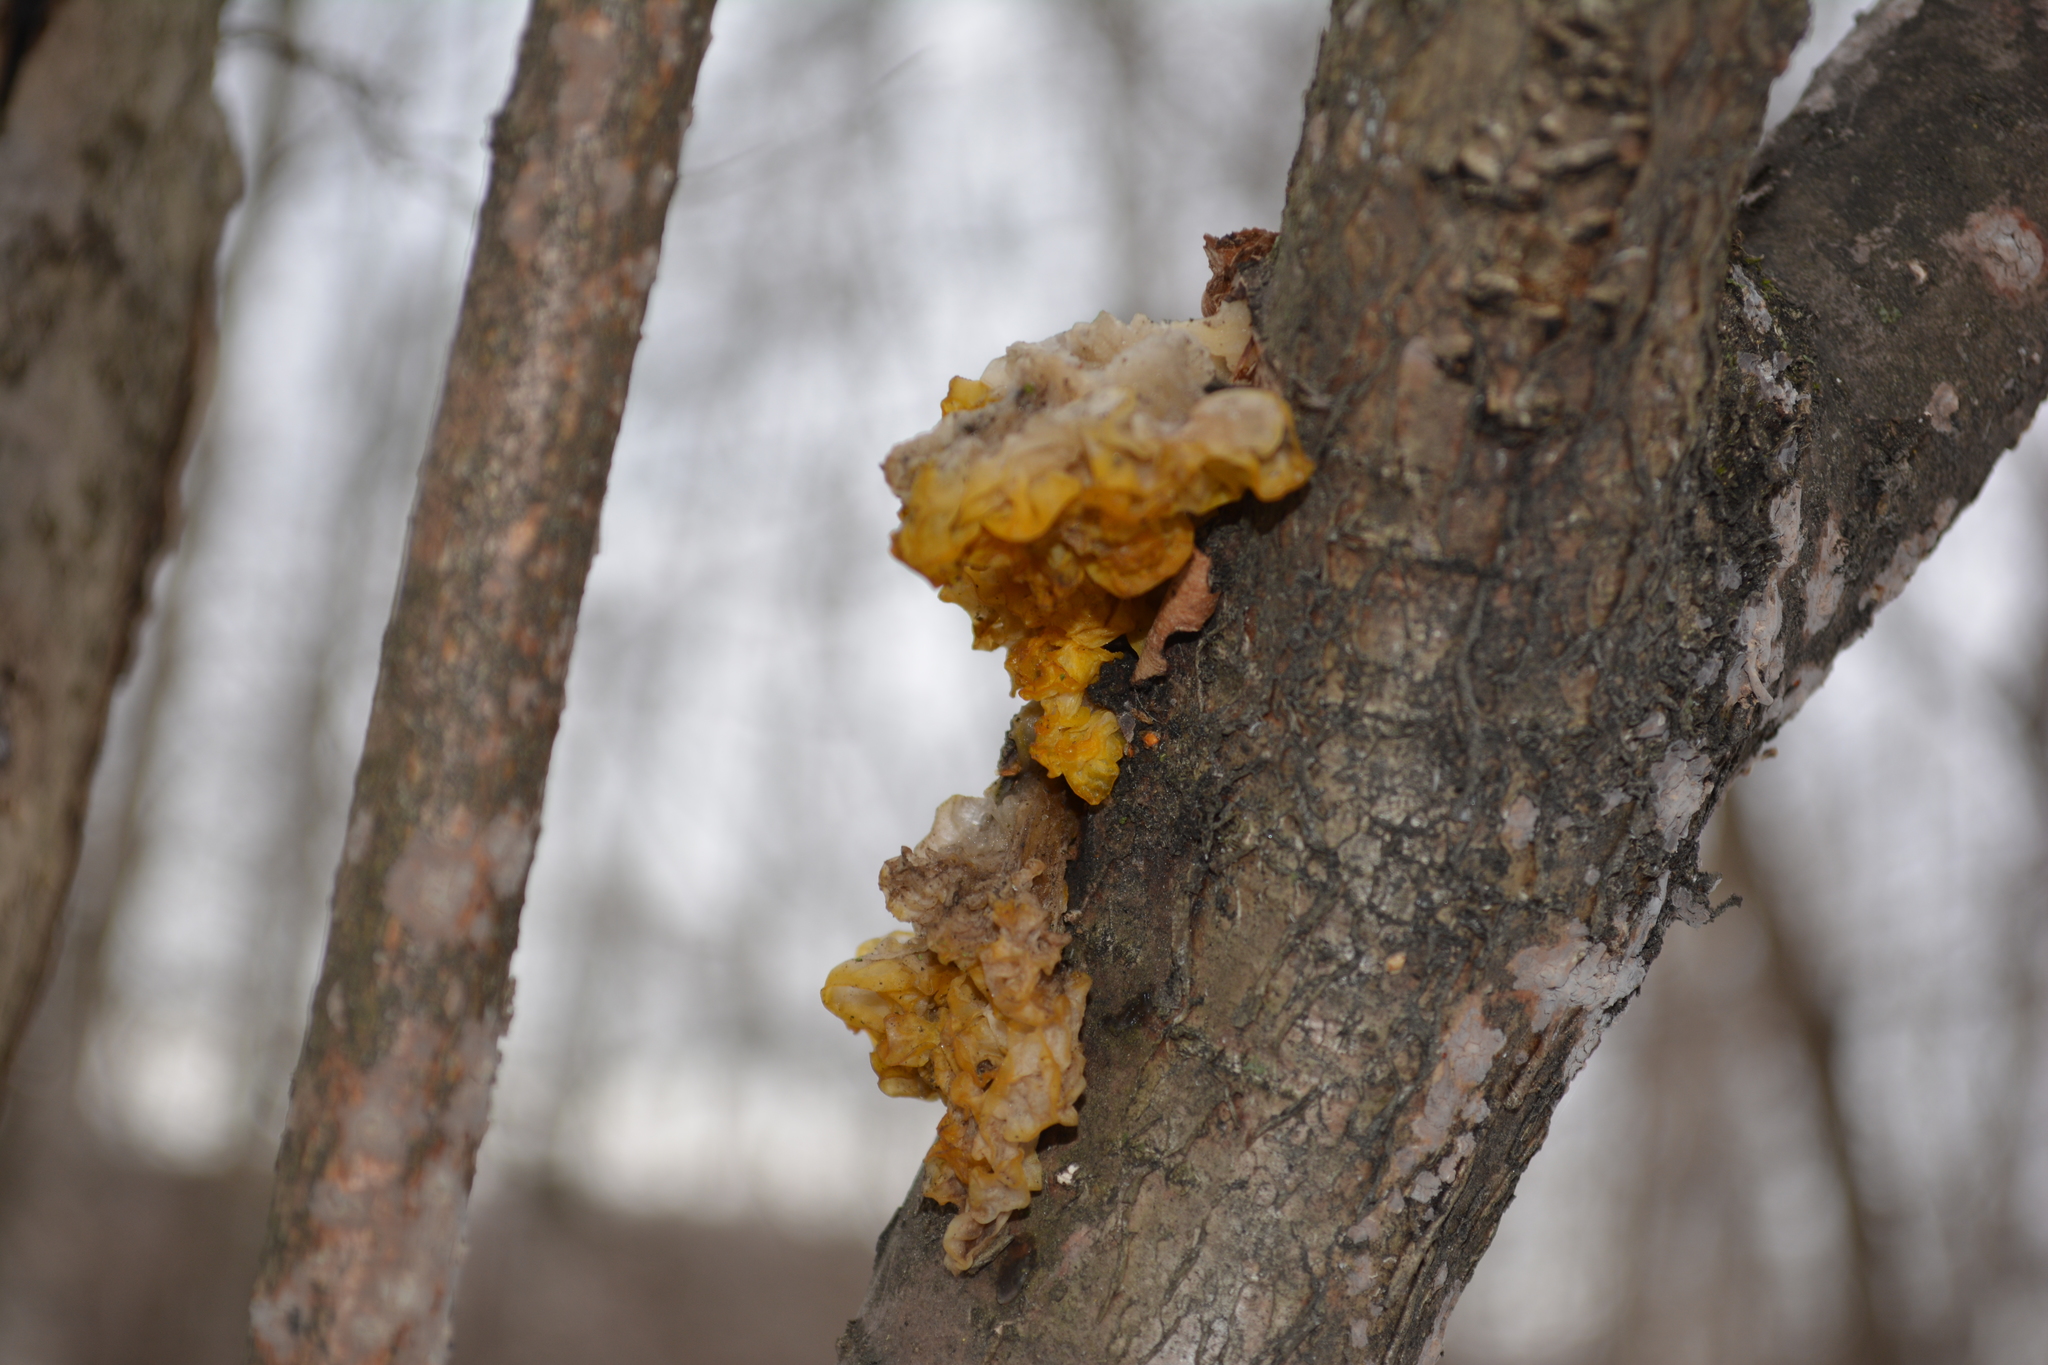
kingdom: Fungi
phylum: Basidiomycota
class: Tremellomycetes
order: Tremellales
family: Tremellaceae
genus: Tremella
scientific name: Tremella mesenterica
